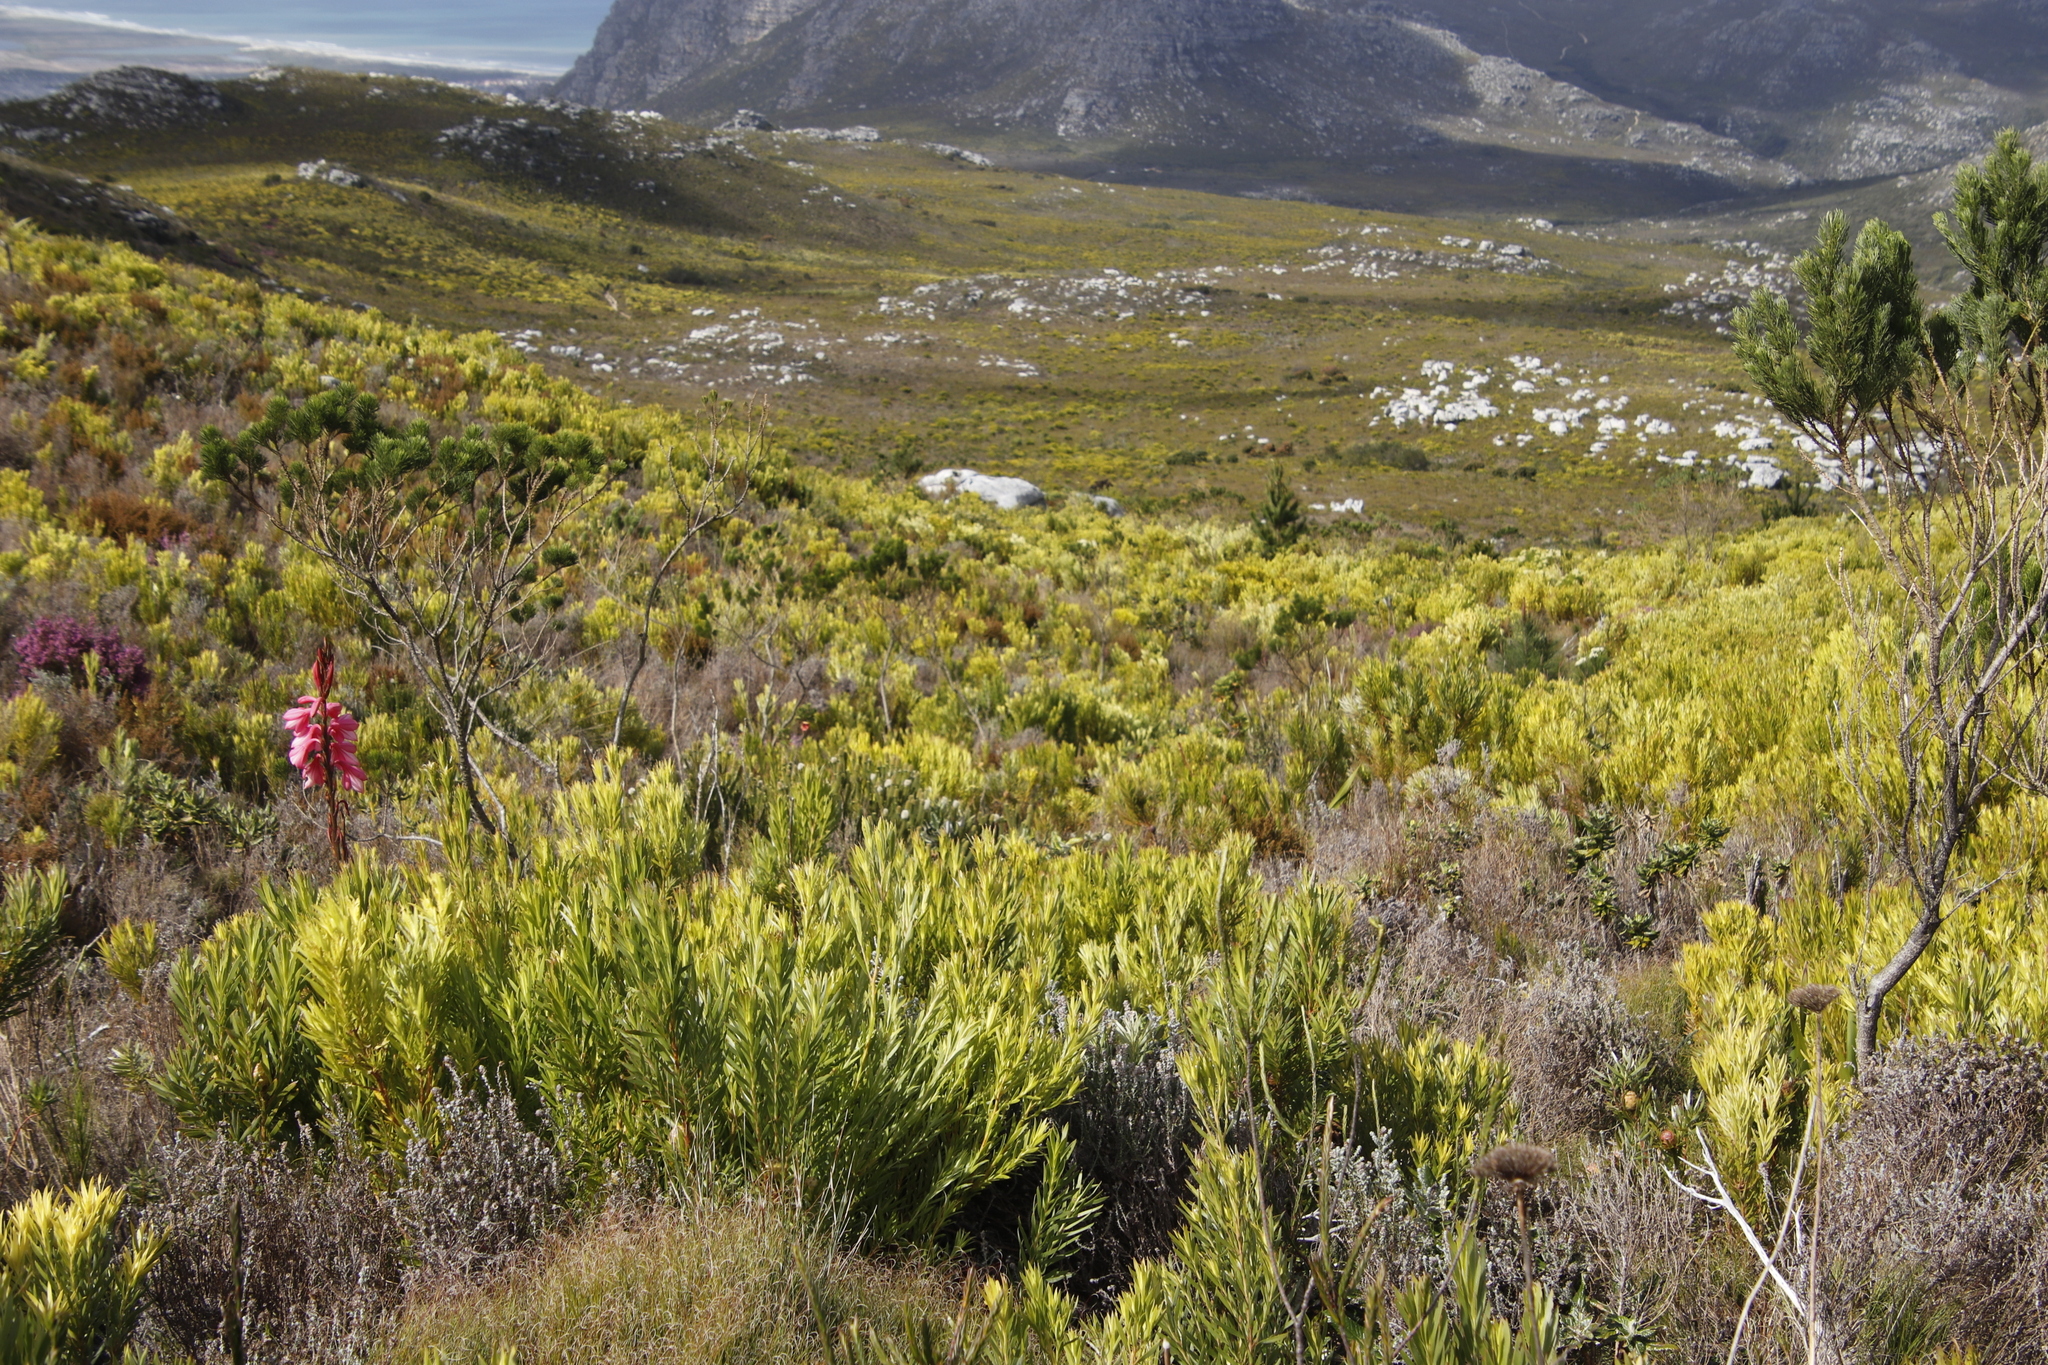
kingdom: Plantae
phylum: Tracheophyta
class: Magnoliopsida
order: Proteales
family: Proteaceae
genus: Leucadendron
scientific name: Leucadendron xanthoconus
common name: Sickle-leaf conebush
